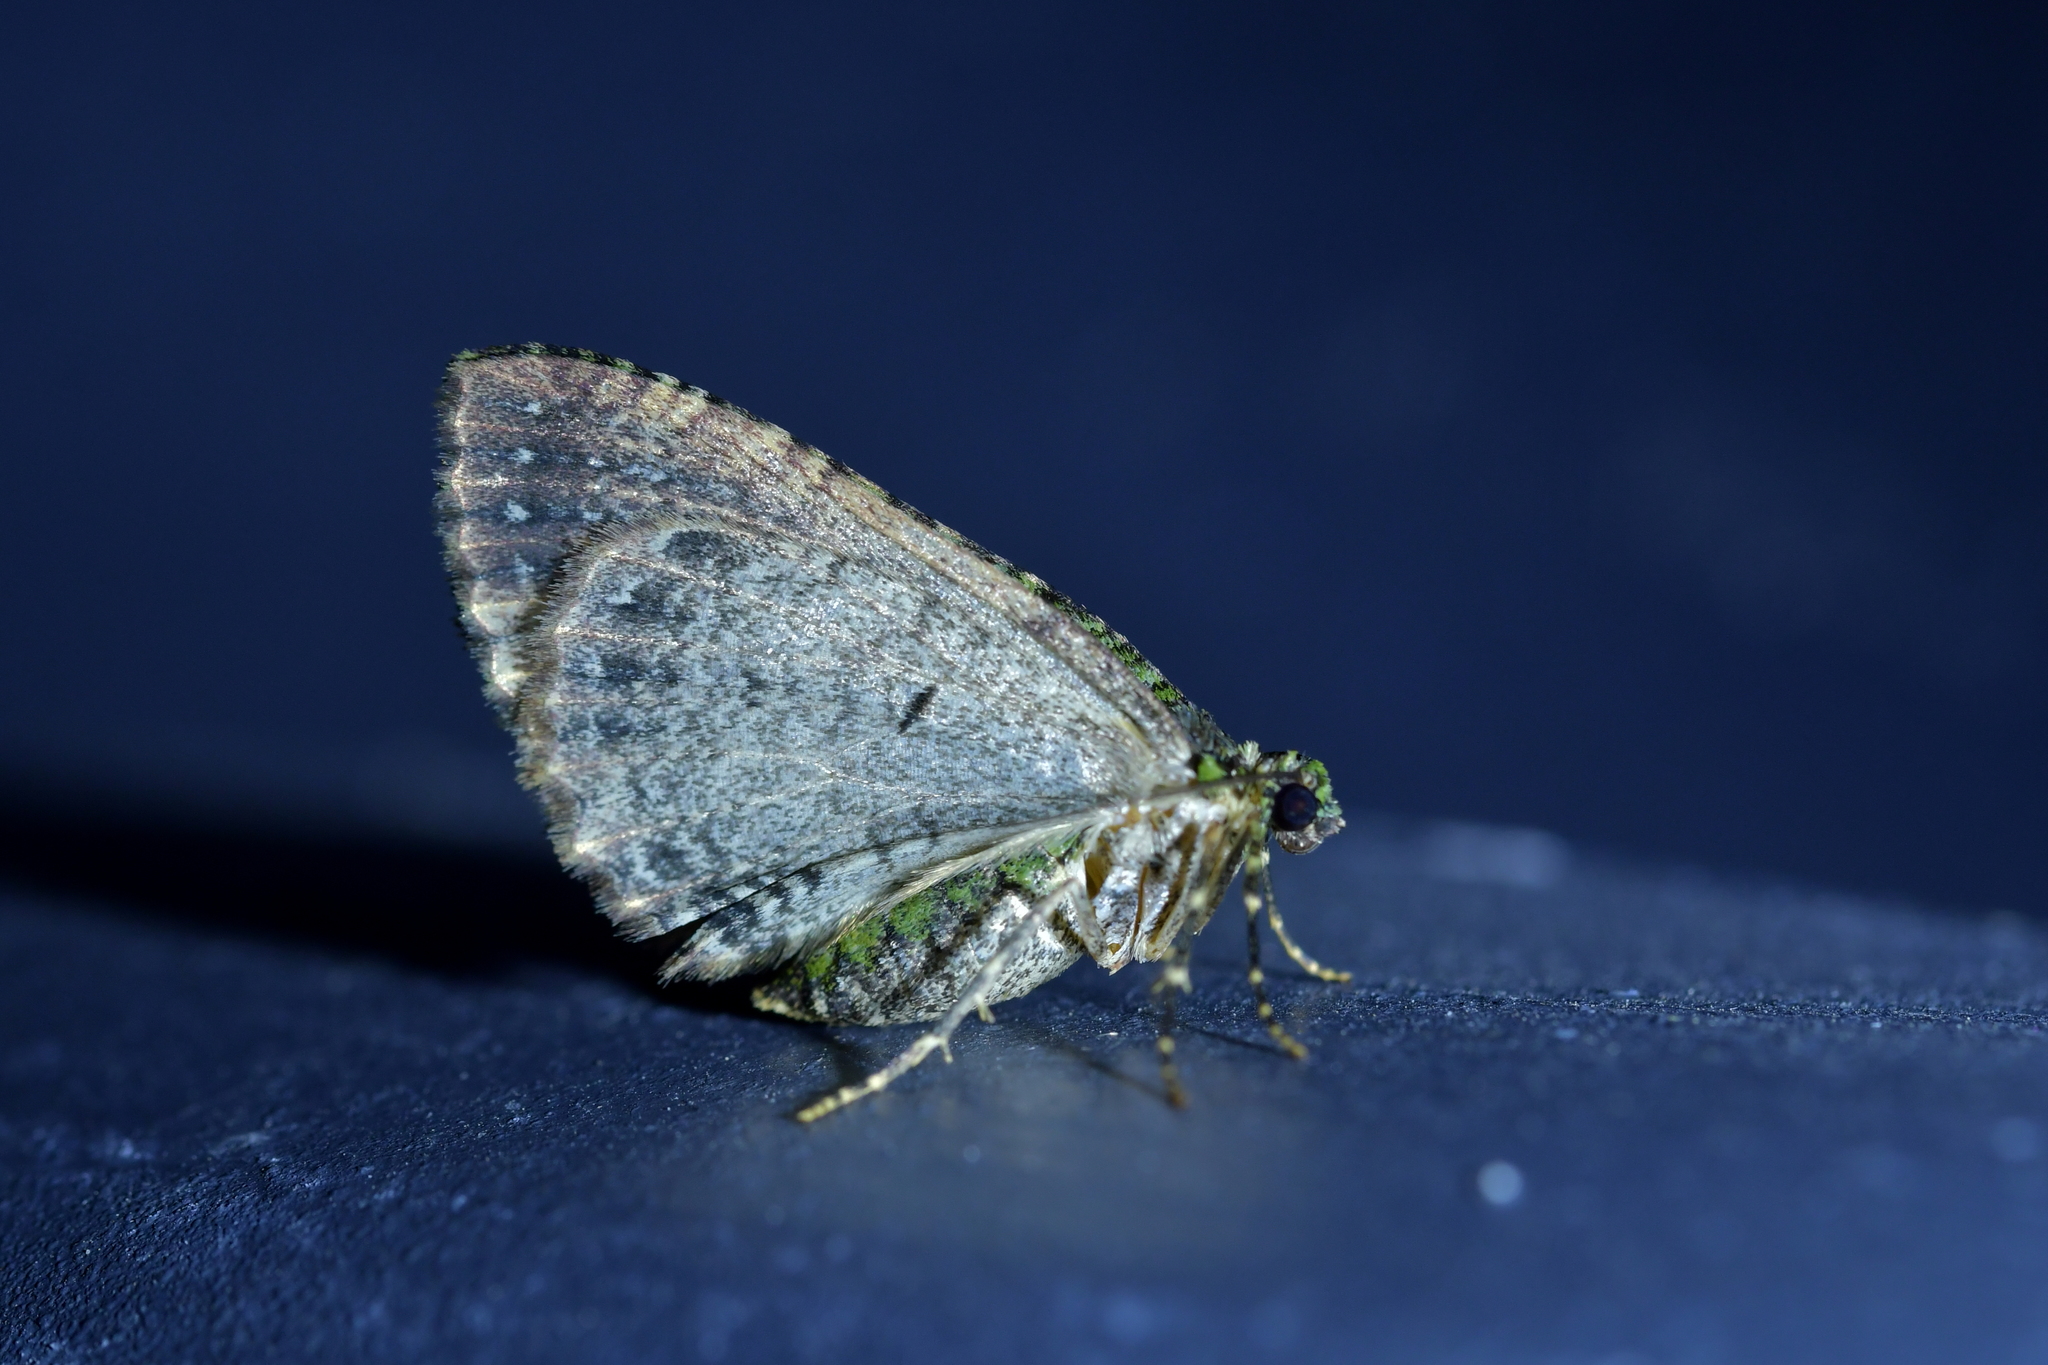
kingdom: Animalia
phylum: Arthropoda
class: Insecta
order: Lepidoptera
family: Geometridae
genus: Austrocidaria
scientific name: Austrocidaria similata
